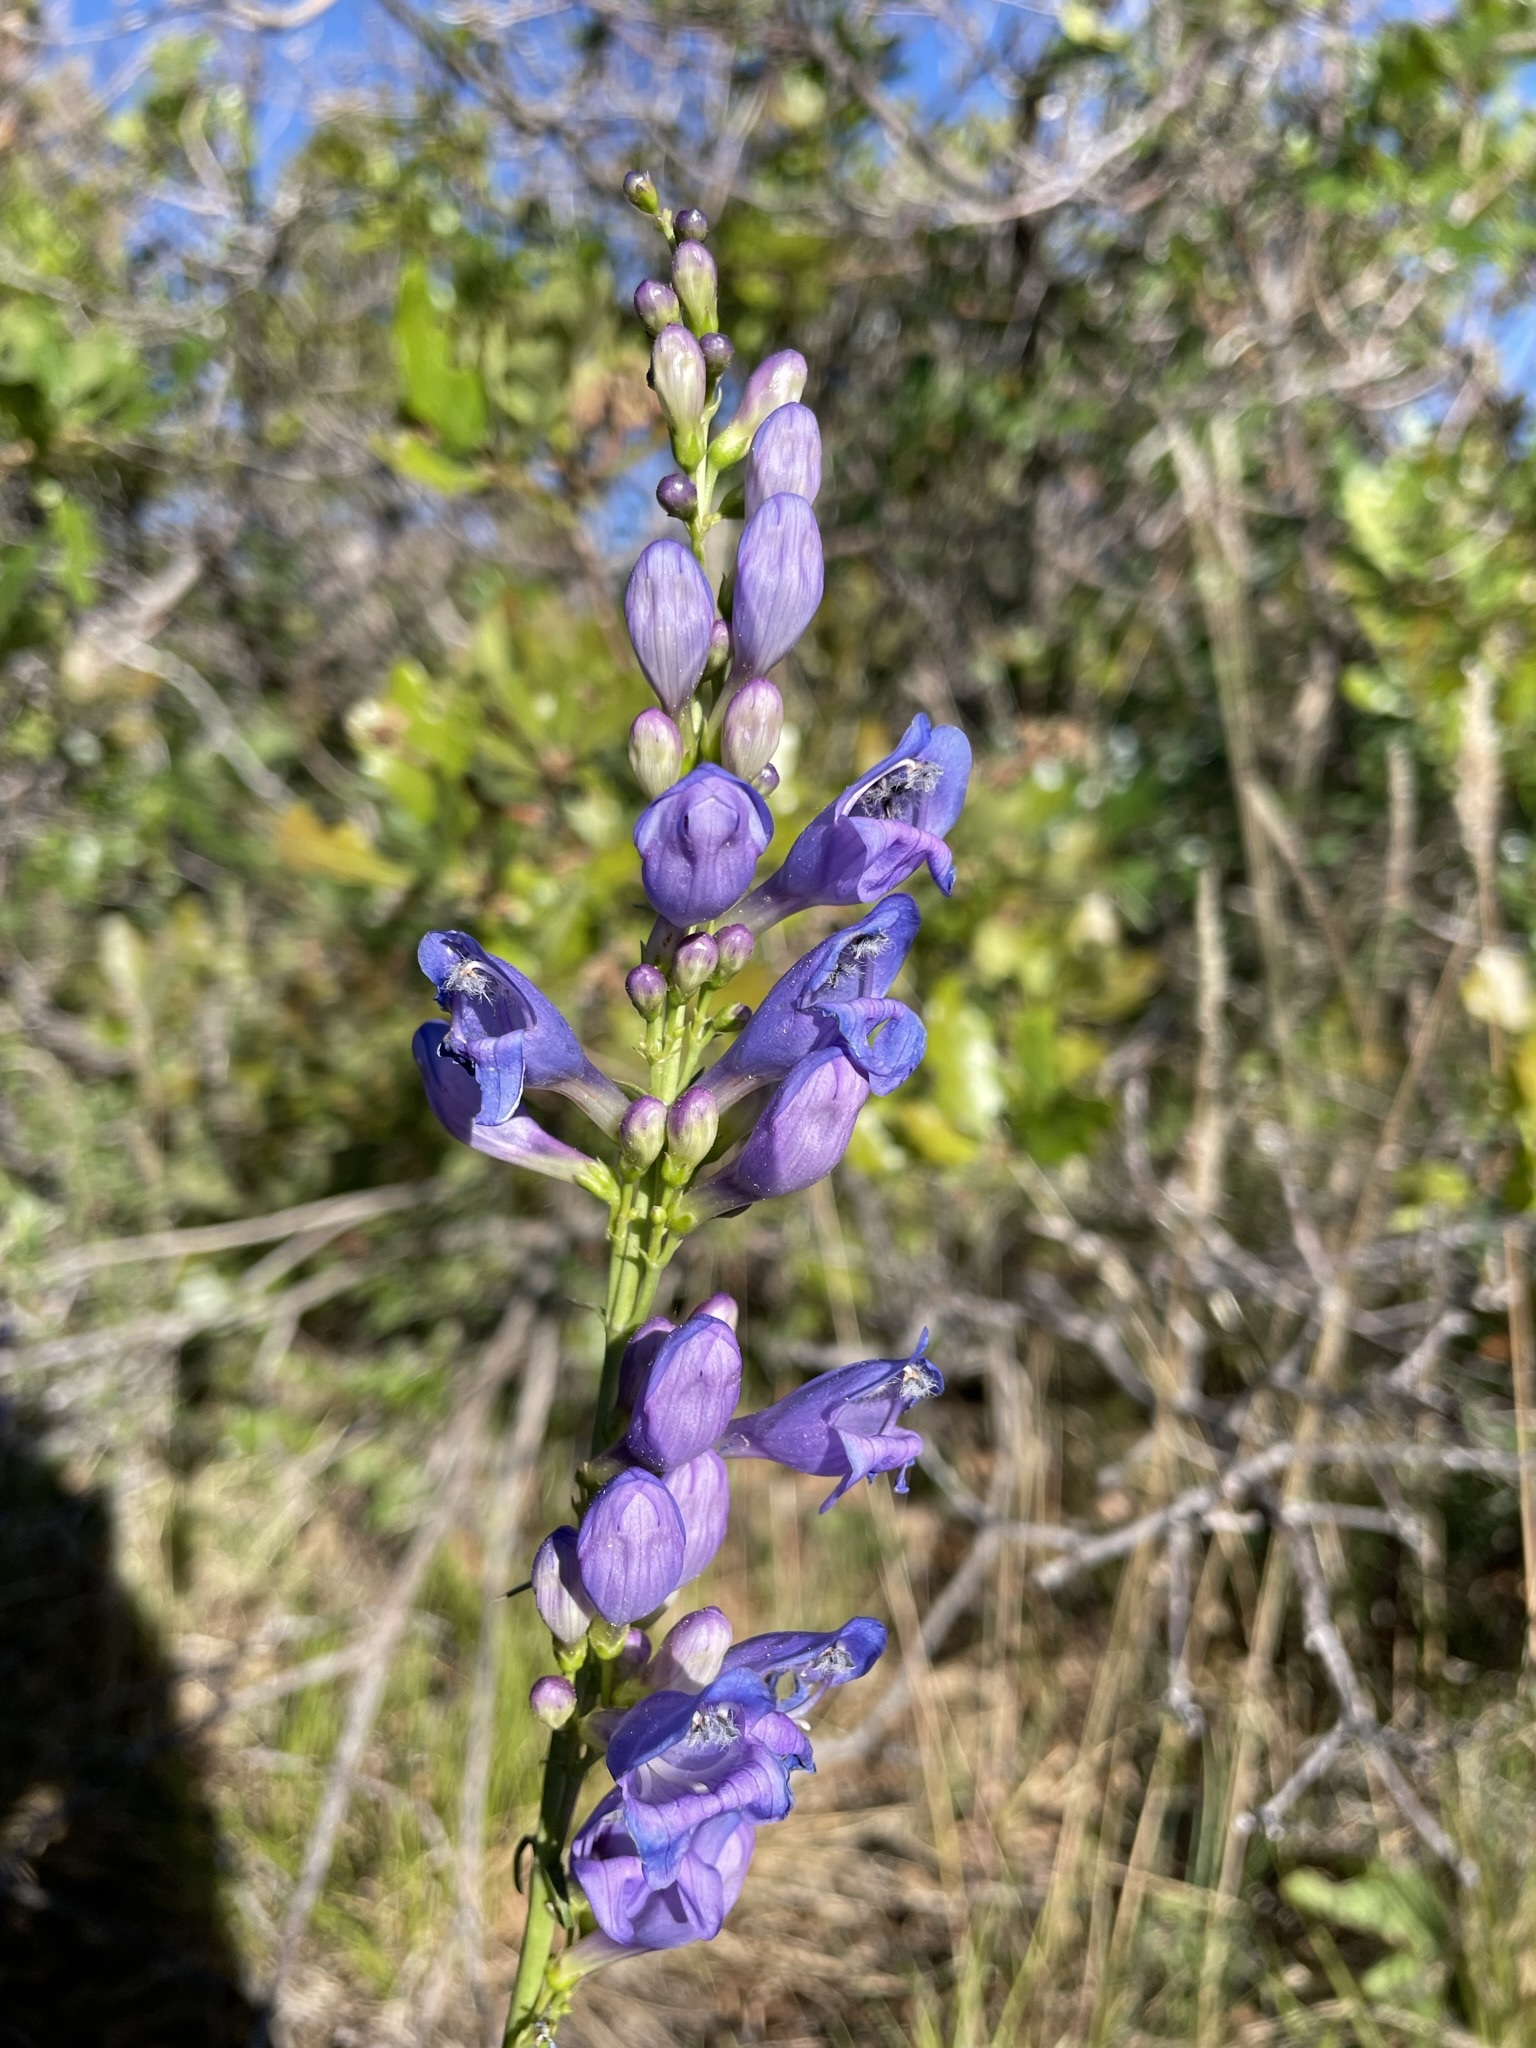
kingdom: Plantae
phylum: Tracheophyta
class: Magnoliopsida
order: Lamiales
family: Plantaginaceae
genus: Penstemon
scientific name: Penstemon strictus
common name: Rocky mountain penstemon
